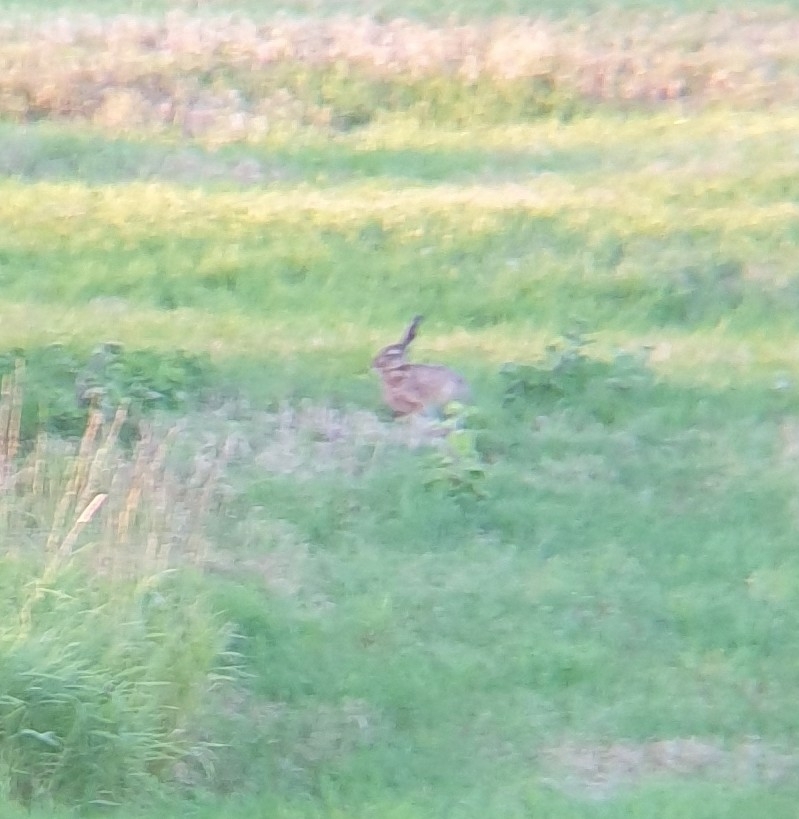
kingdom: Animalia
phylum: Chordata
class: Mammalia
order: Lagomorpha
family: Leporidae
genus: Lepus
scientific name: Lepus europaeus
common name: European hare
